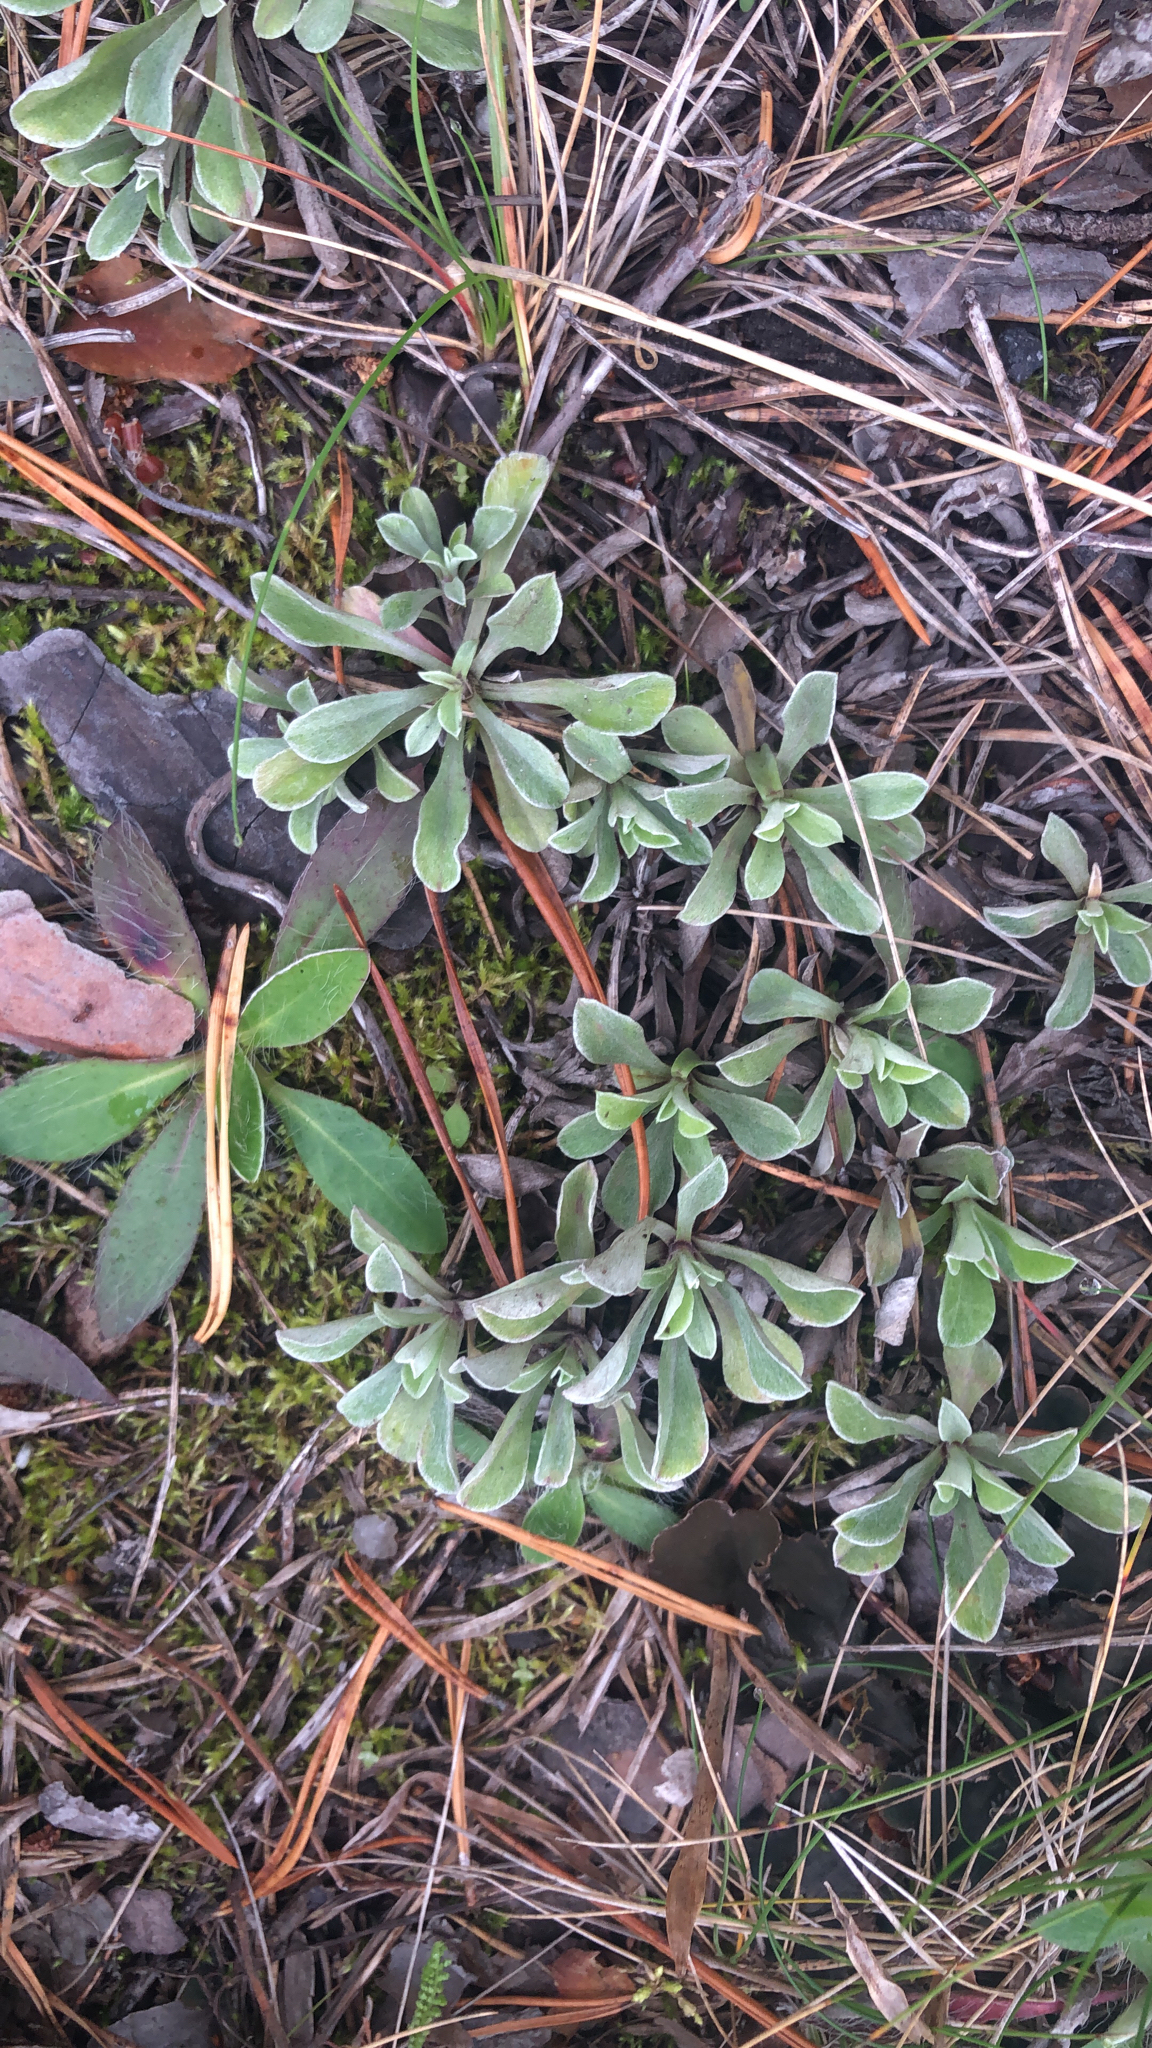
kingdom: Plantae
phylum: Tracheophyta
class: Magnoliopsida
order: Asterales
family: Asteraceae
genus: Antennaria
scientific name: Antennaria dioica
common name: Mountain everlasting
